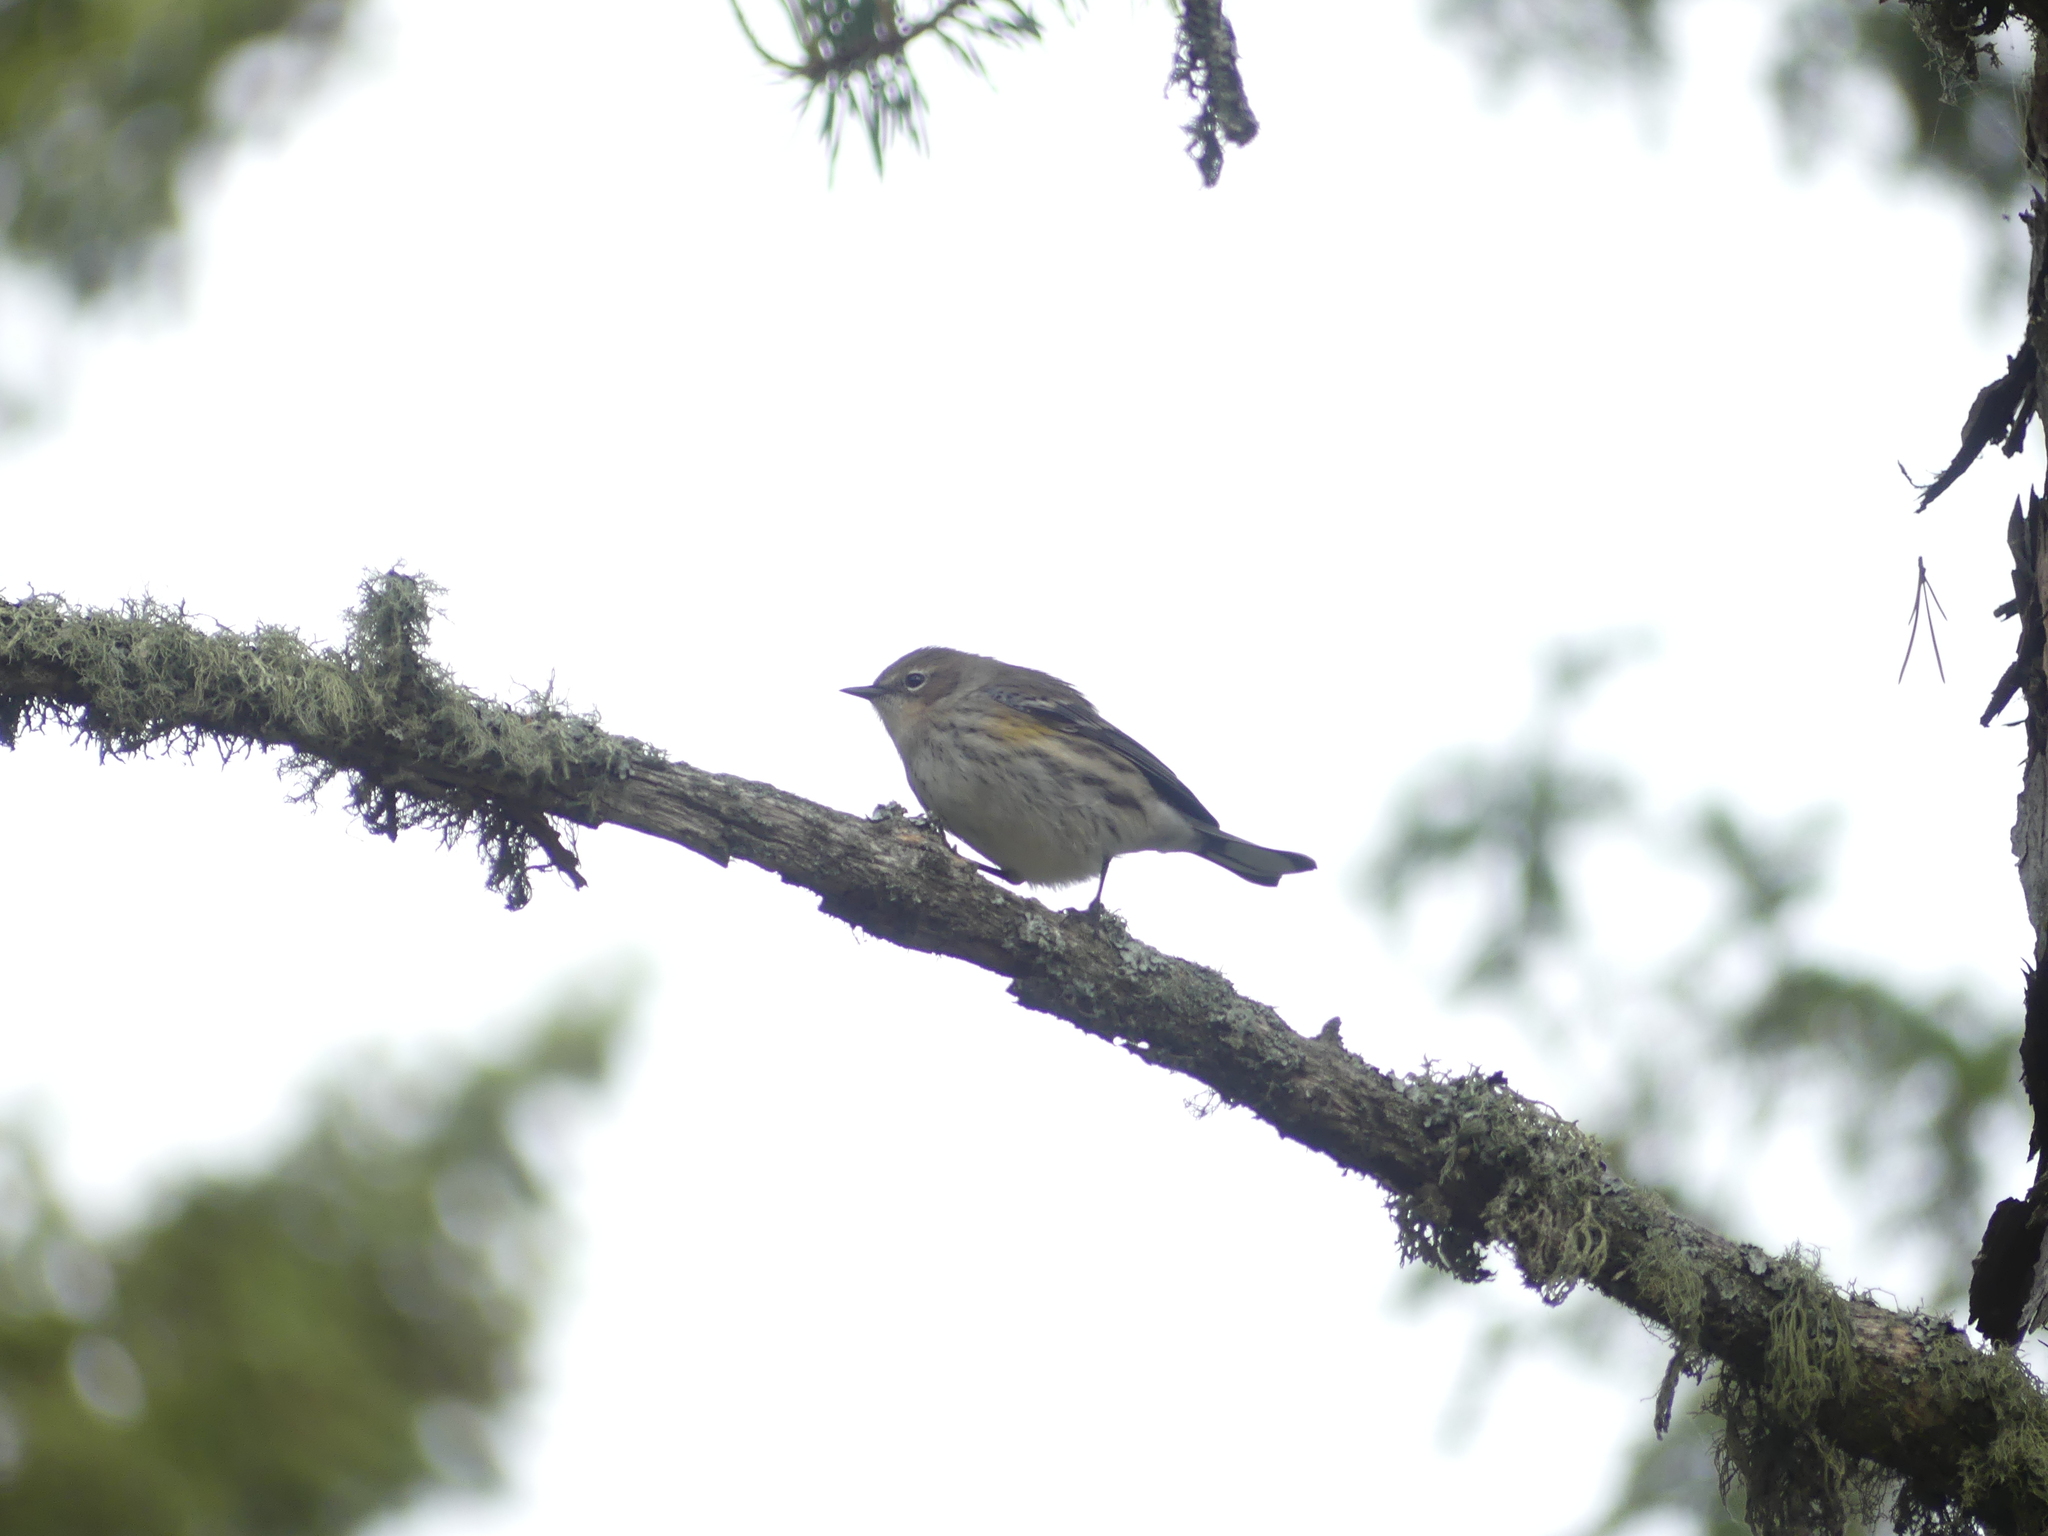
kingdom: Animalia
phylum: Chordata
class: Aves
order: Passeriformes
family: Parulidae
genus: Setophaga
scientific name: Setophaga coronata
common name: Myrtle warbler
